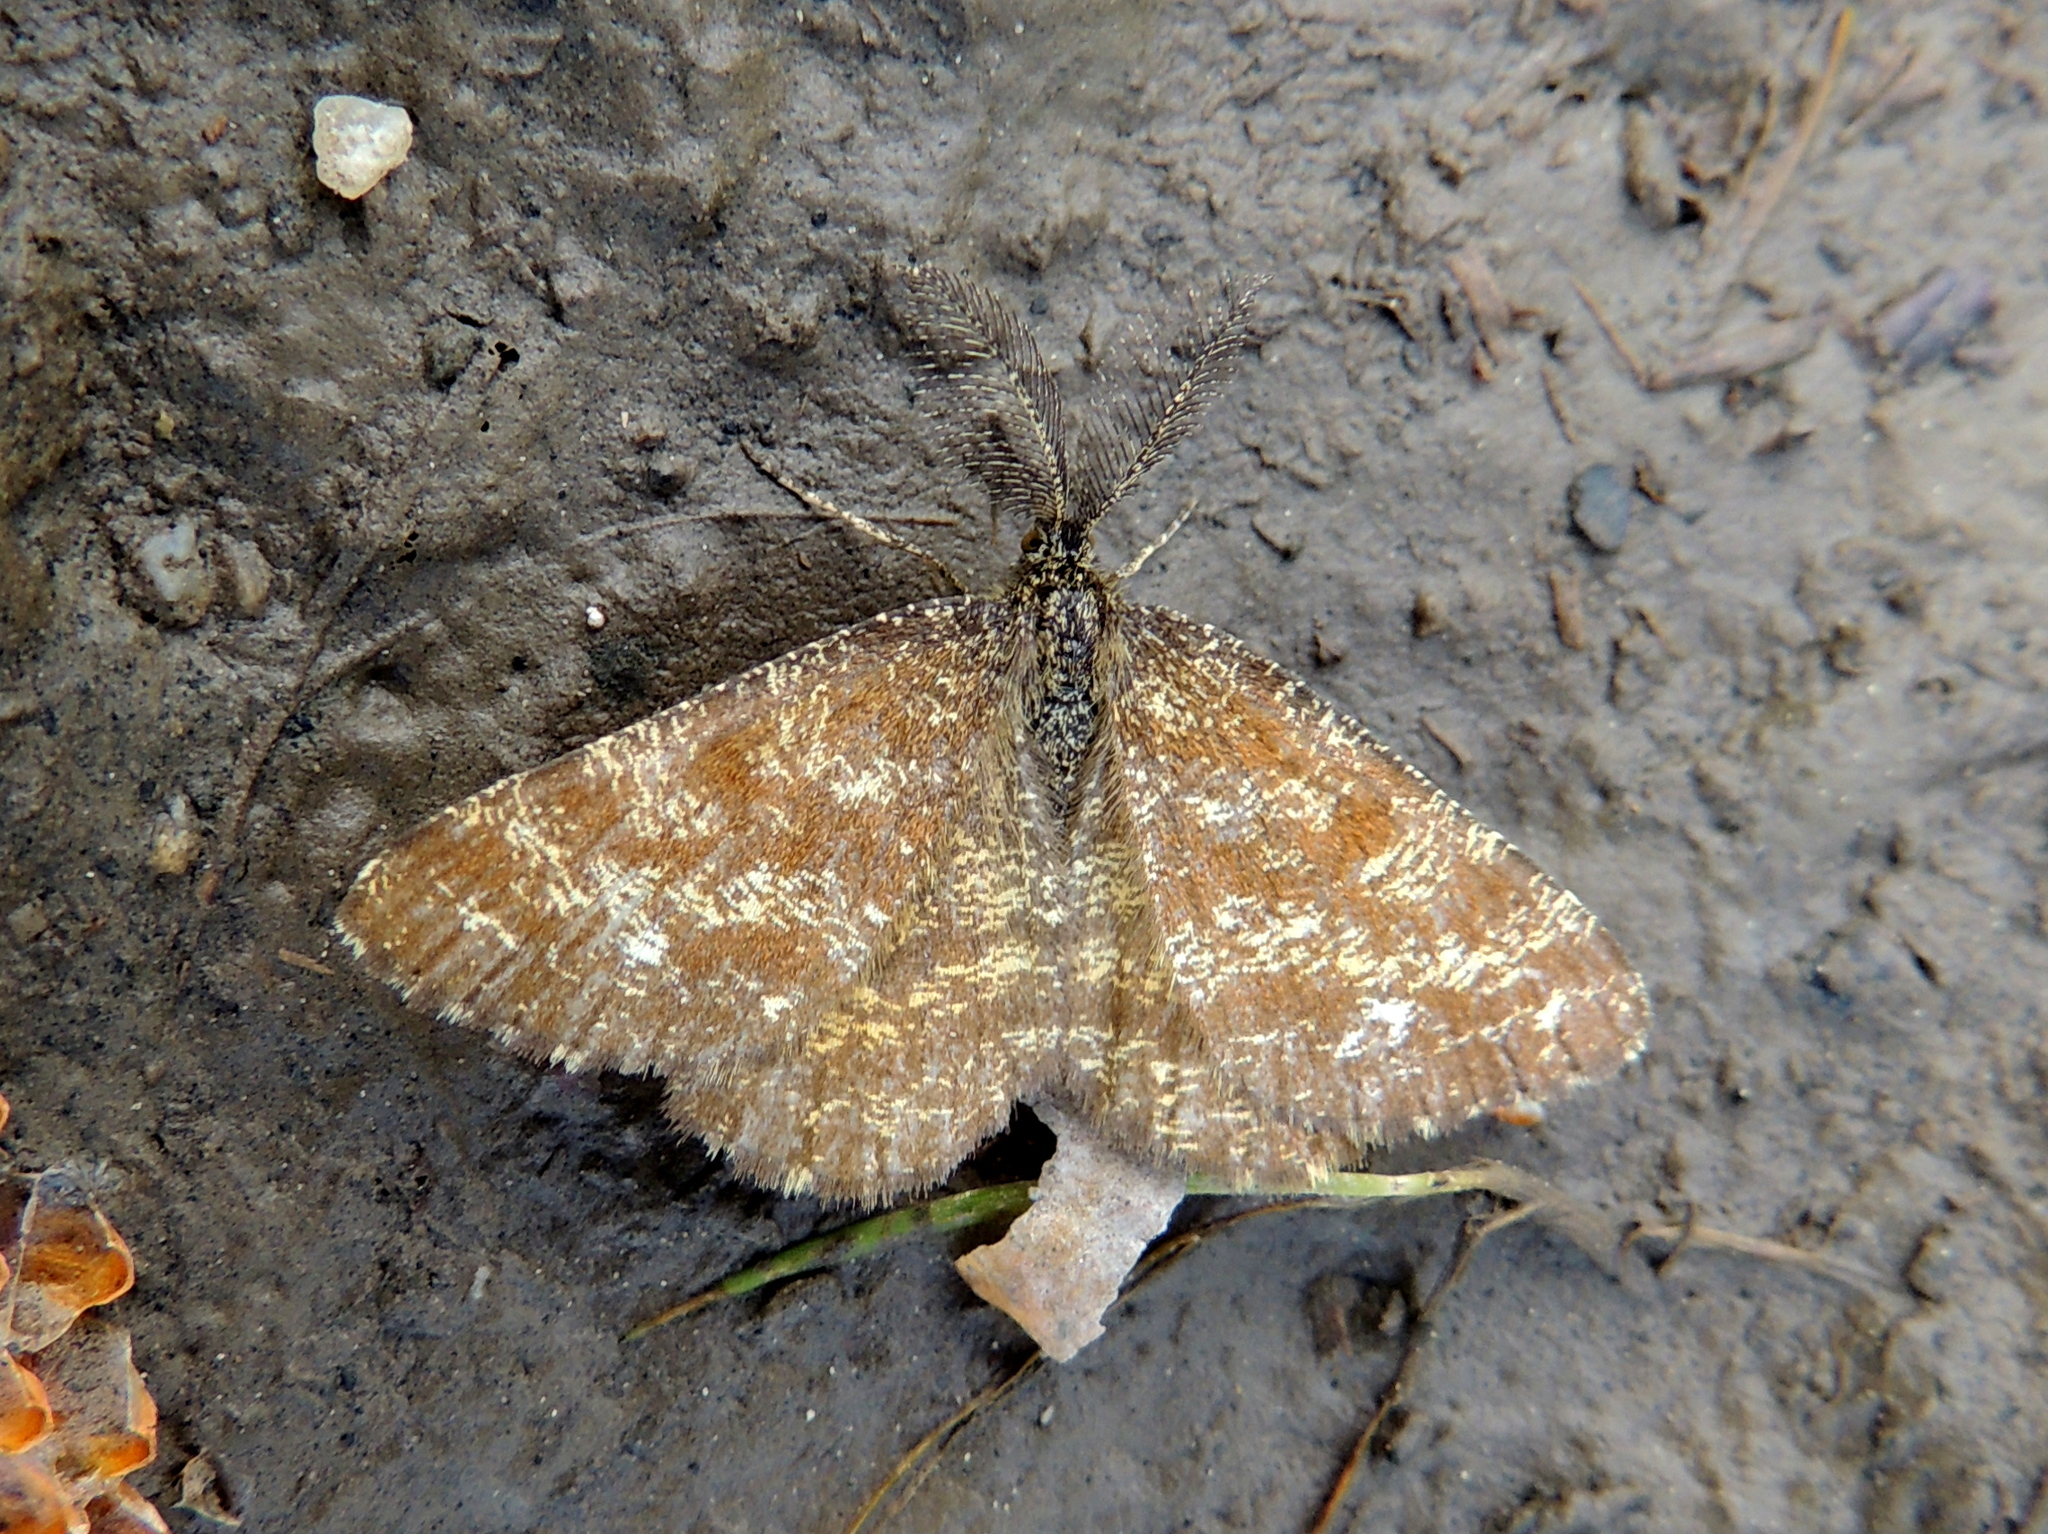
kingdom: Animalia
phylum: Arthropoda
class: Insecta
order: Lepidoptera
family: Geometridae
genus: Ematurga
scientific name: Ematurga atomaria
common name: Common heath
